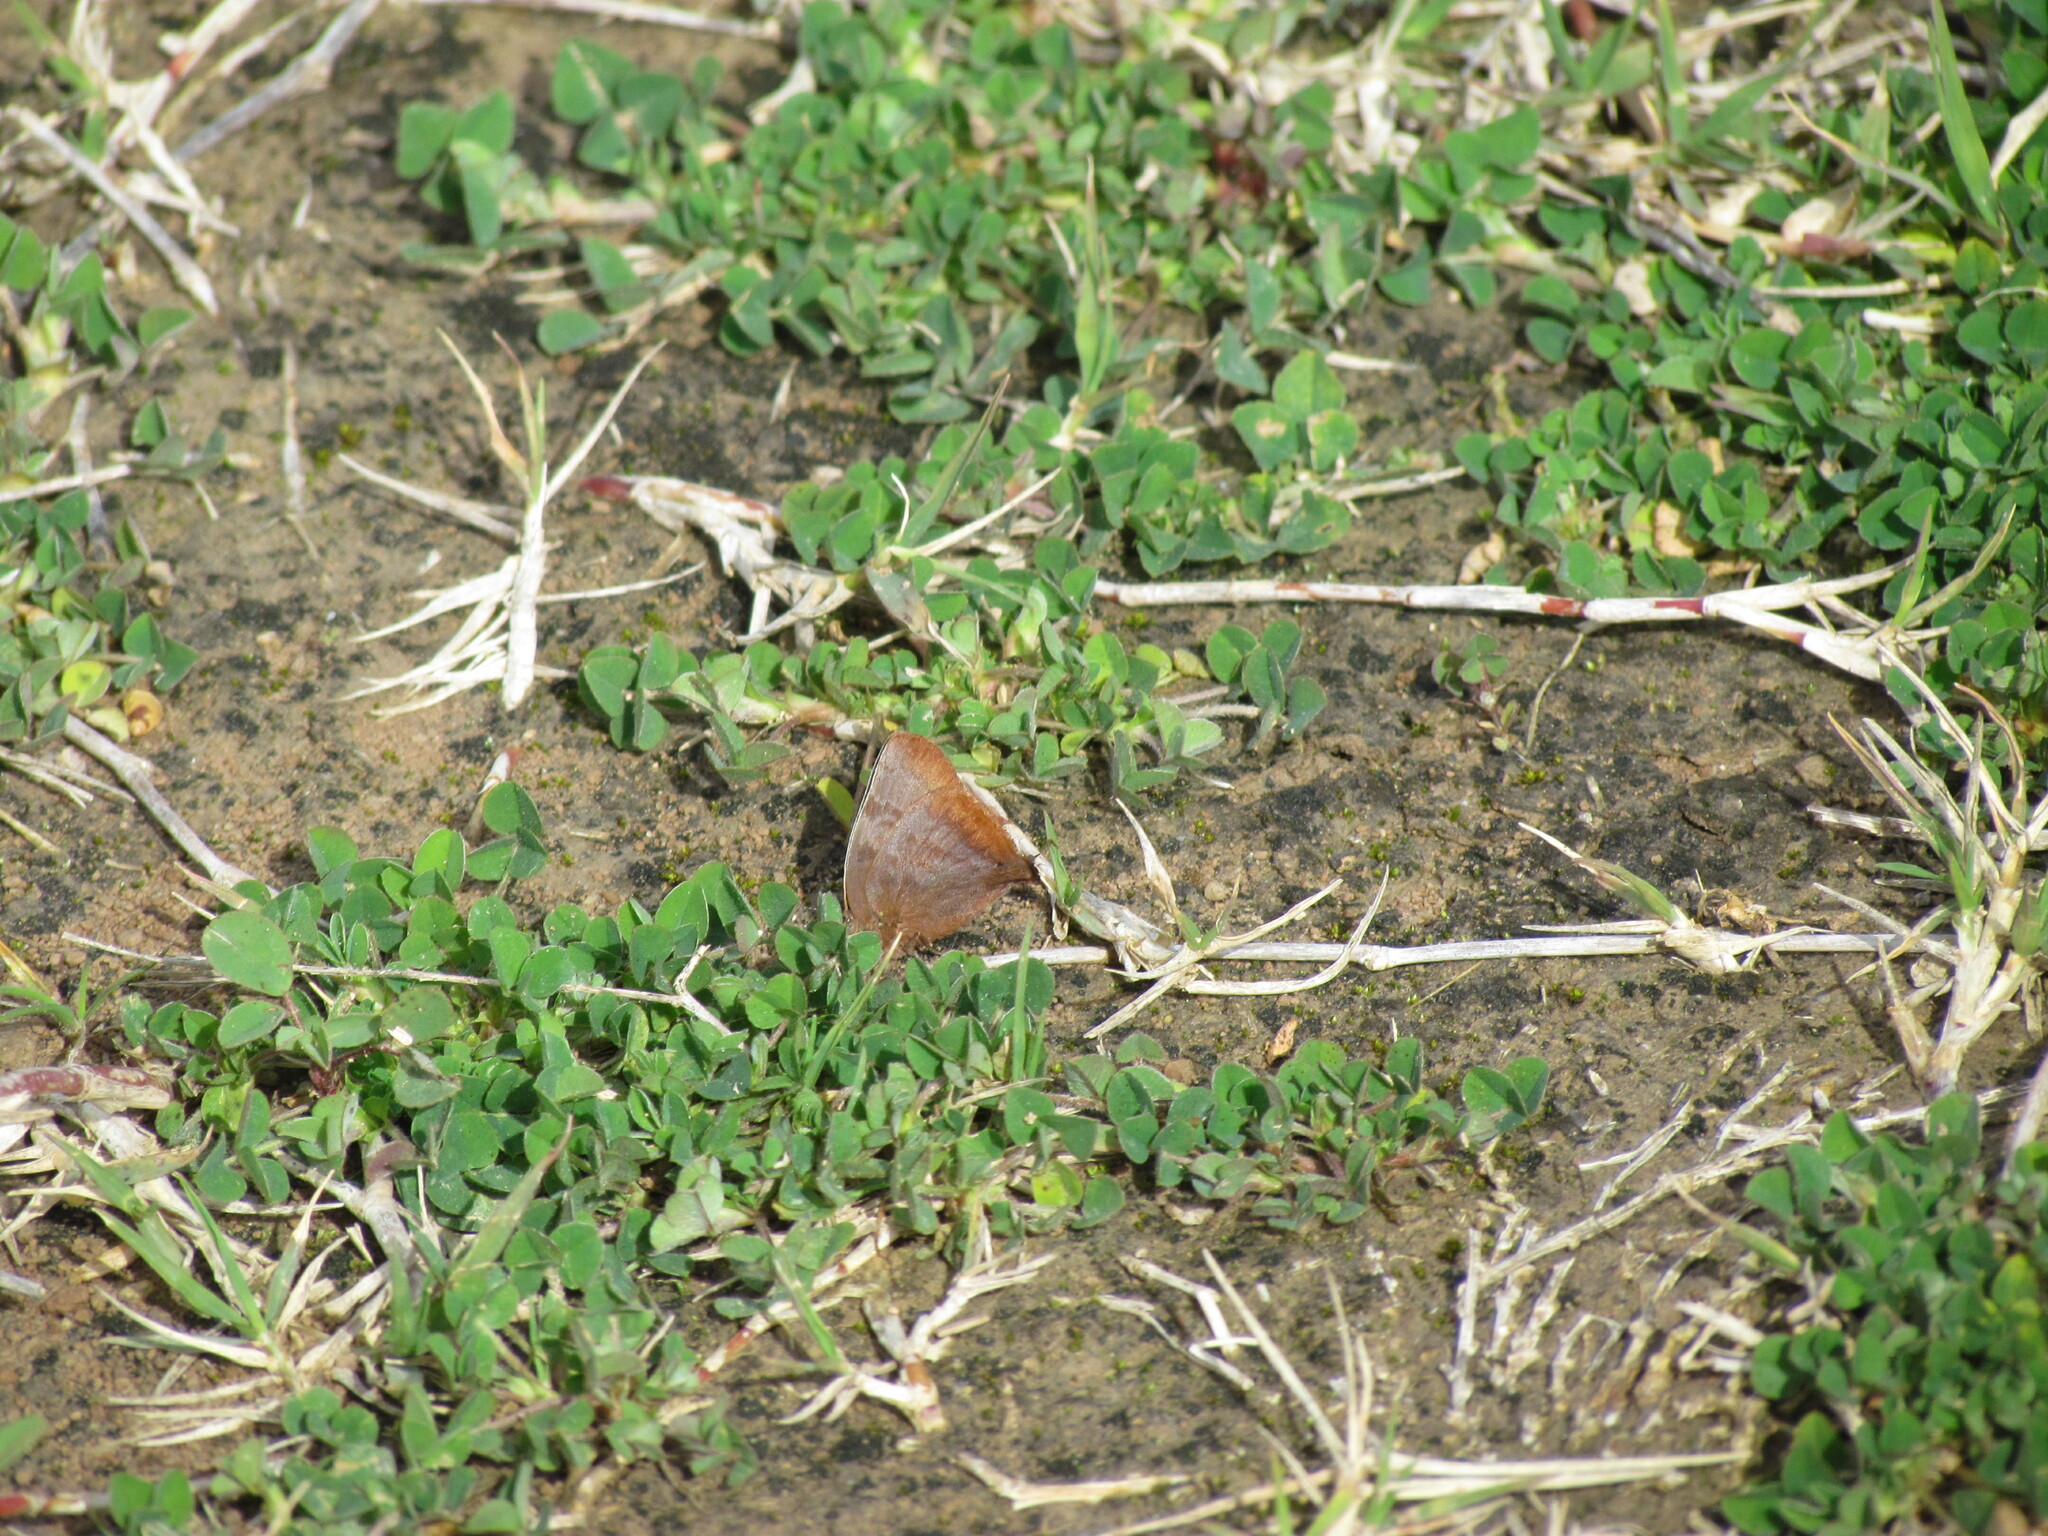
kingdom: Animalia
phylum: Arthropoda
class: Insecta
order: Lepidoptera
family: Lycaenidae
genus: Thecla
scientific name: Thecla marius
